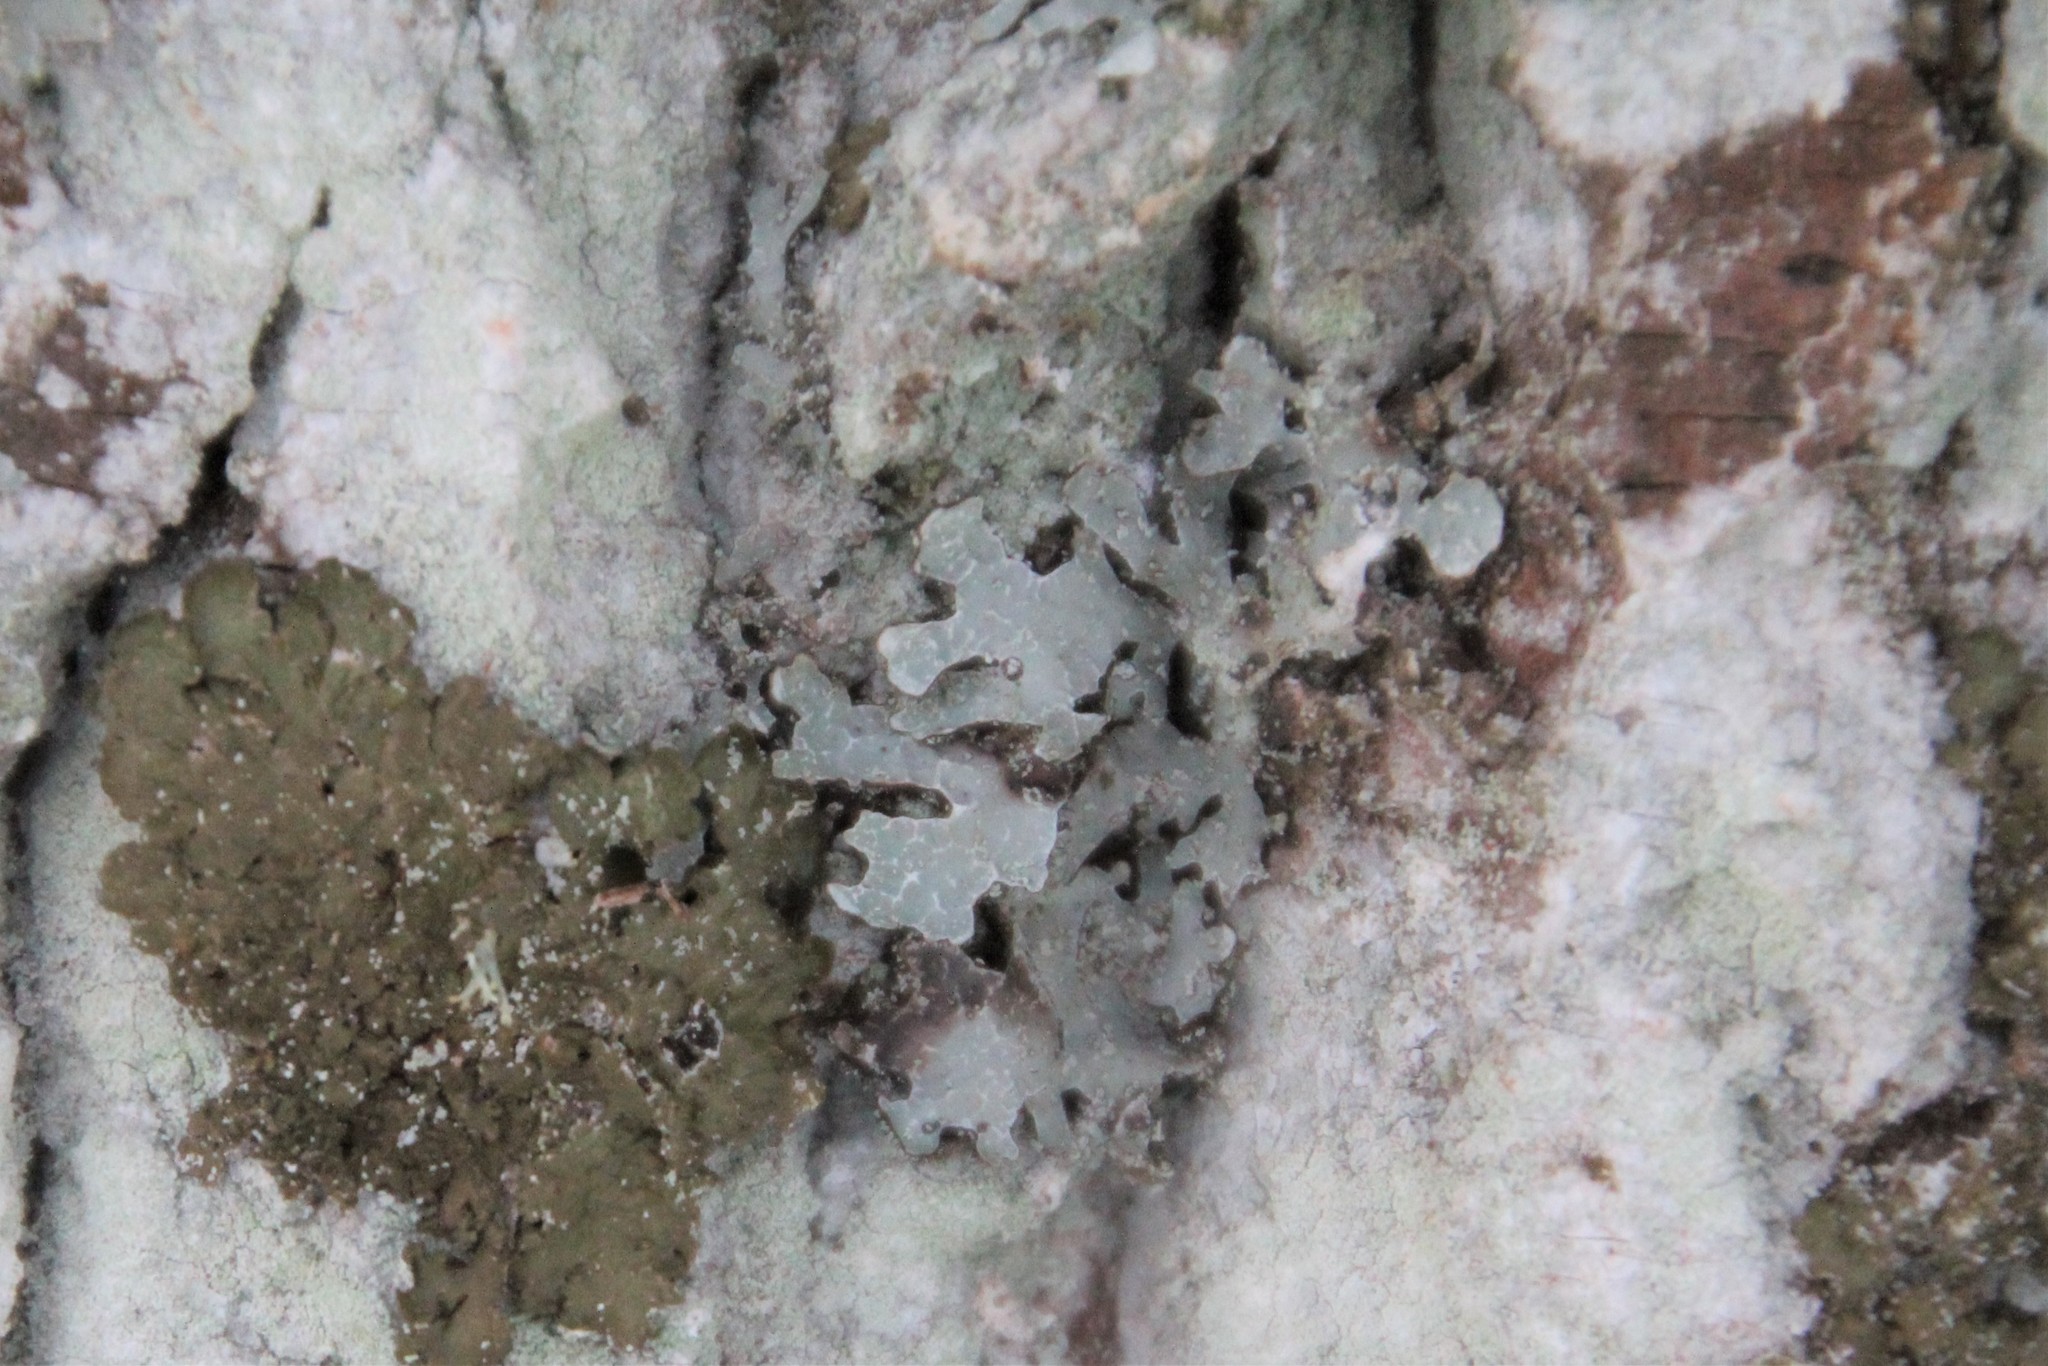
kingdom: Fungi
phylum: Ascomycota
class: Lecanoromycetes
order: Lecanorales
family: Parmeliaceae
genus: Parmelia
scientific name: Parmelia sulcata
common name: Netted shield lichen
